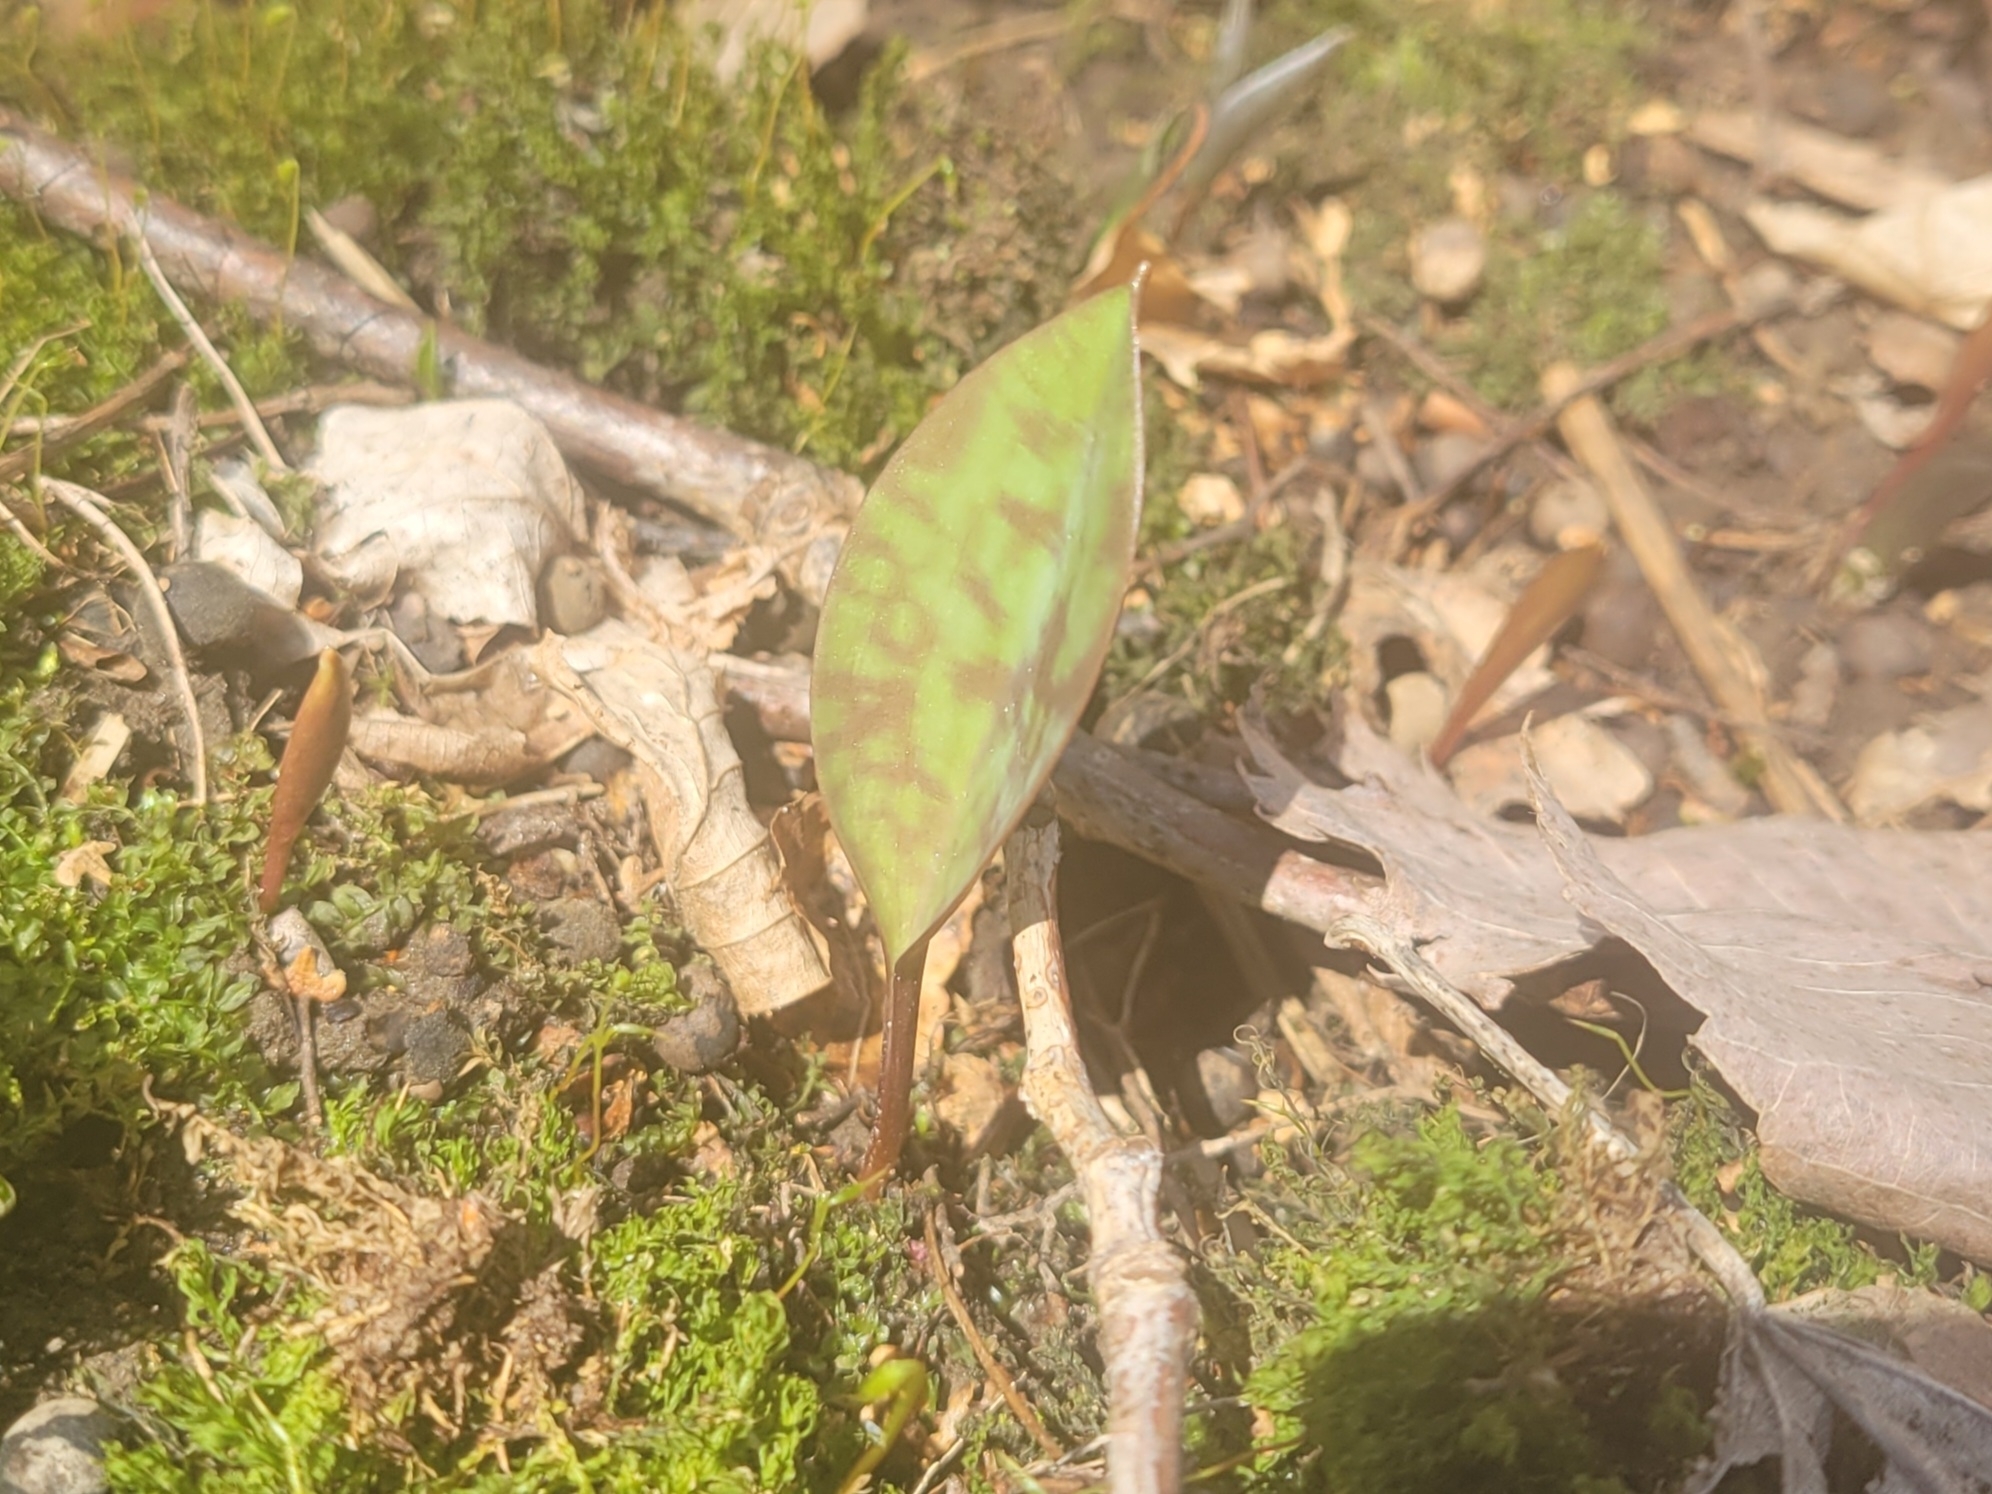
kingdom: Plantae
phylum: Tracheophyta
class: Liliopsida
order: Liliales
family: Liliaceae
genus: Erythronium
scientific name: Erythronium americanum
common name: Yellow adder's-tongue
